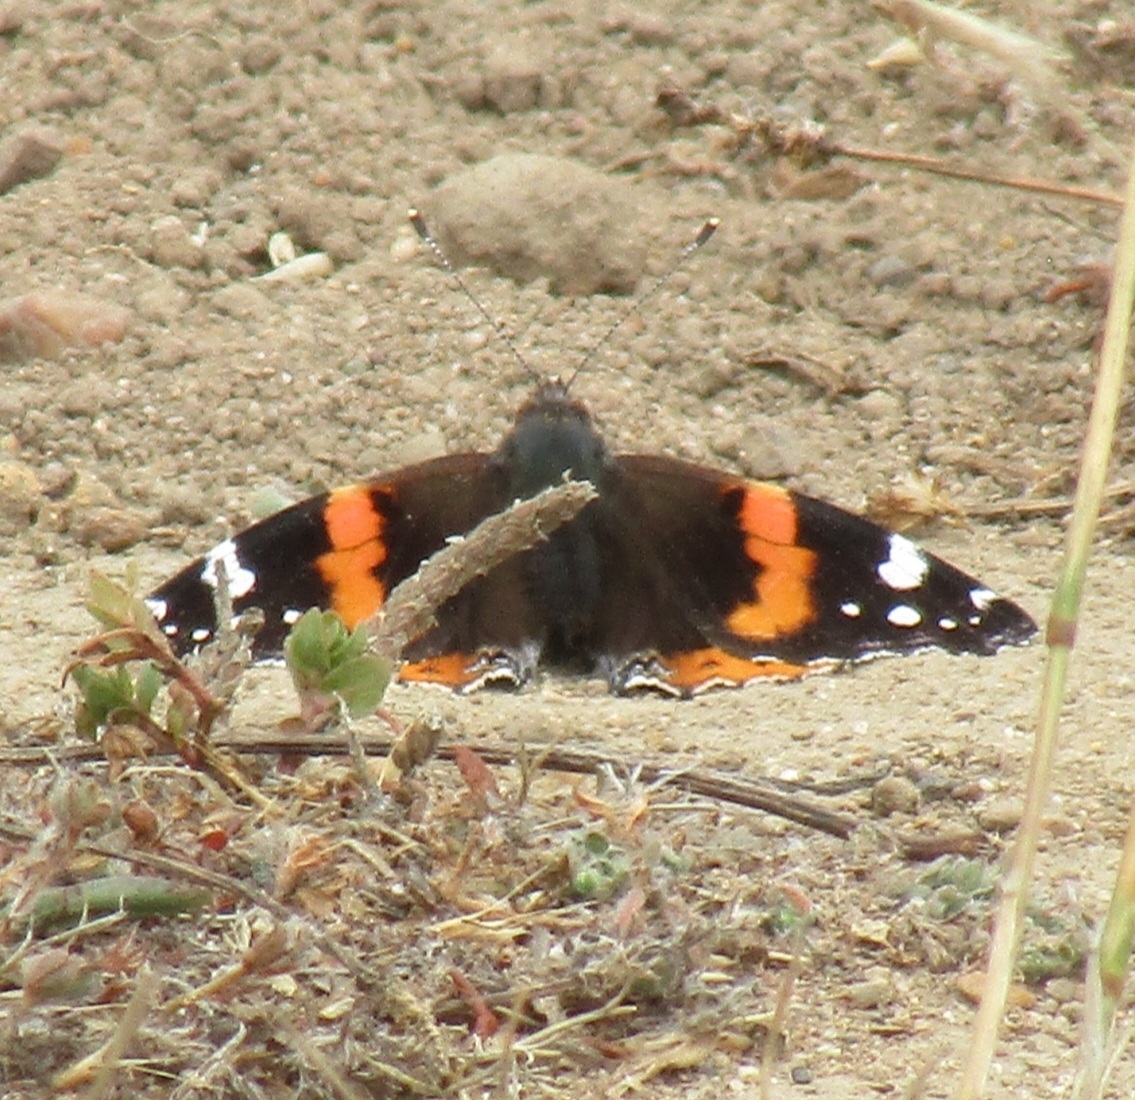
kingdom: Animalia
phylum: Arthropoda
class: Insecta
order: Lepidoptera
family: Nymphalidae
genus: Vanessa
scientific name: Vanessa atalanta
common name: Red admiral
